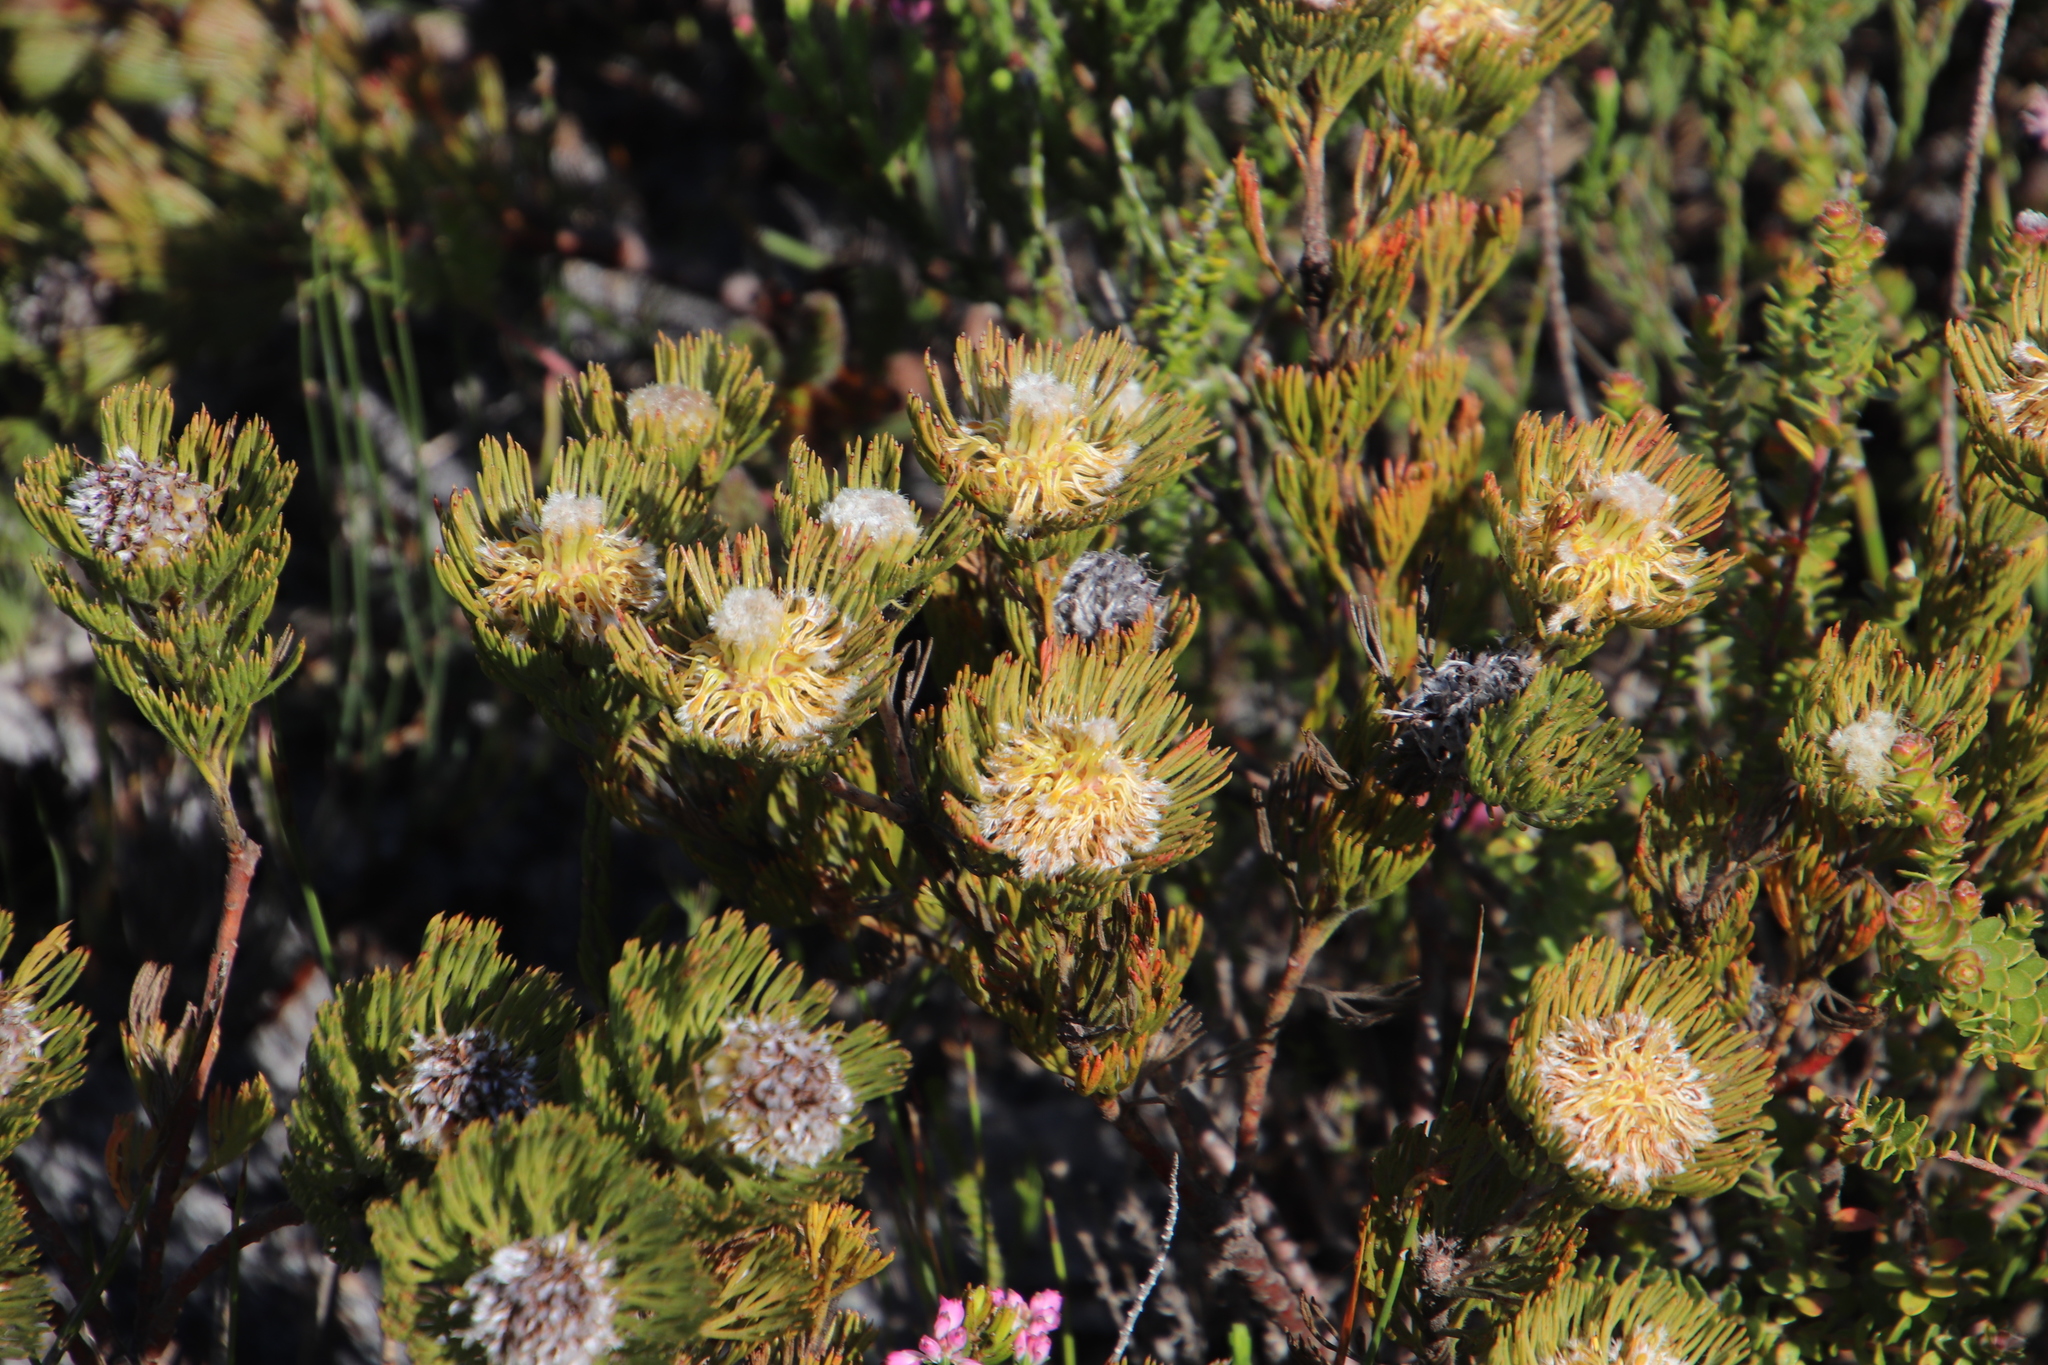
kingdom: Plantae
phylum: Tracheophyta
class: Magnoliopsida
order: Proteales
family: Proteaceae
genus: Serruria
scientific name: Serruria villosa
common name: Golden spiderhead
